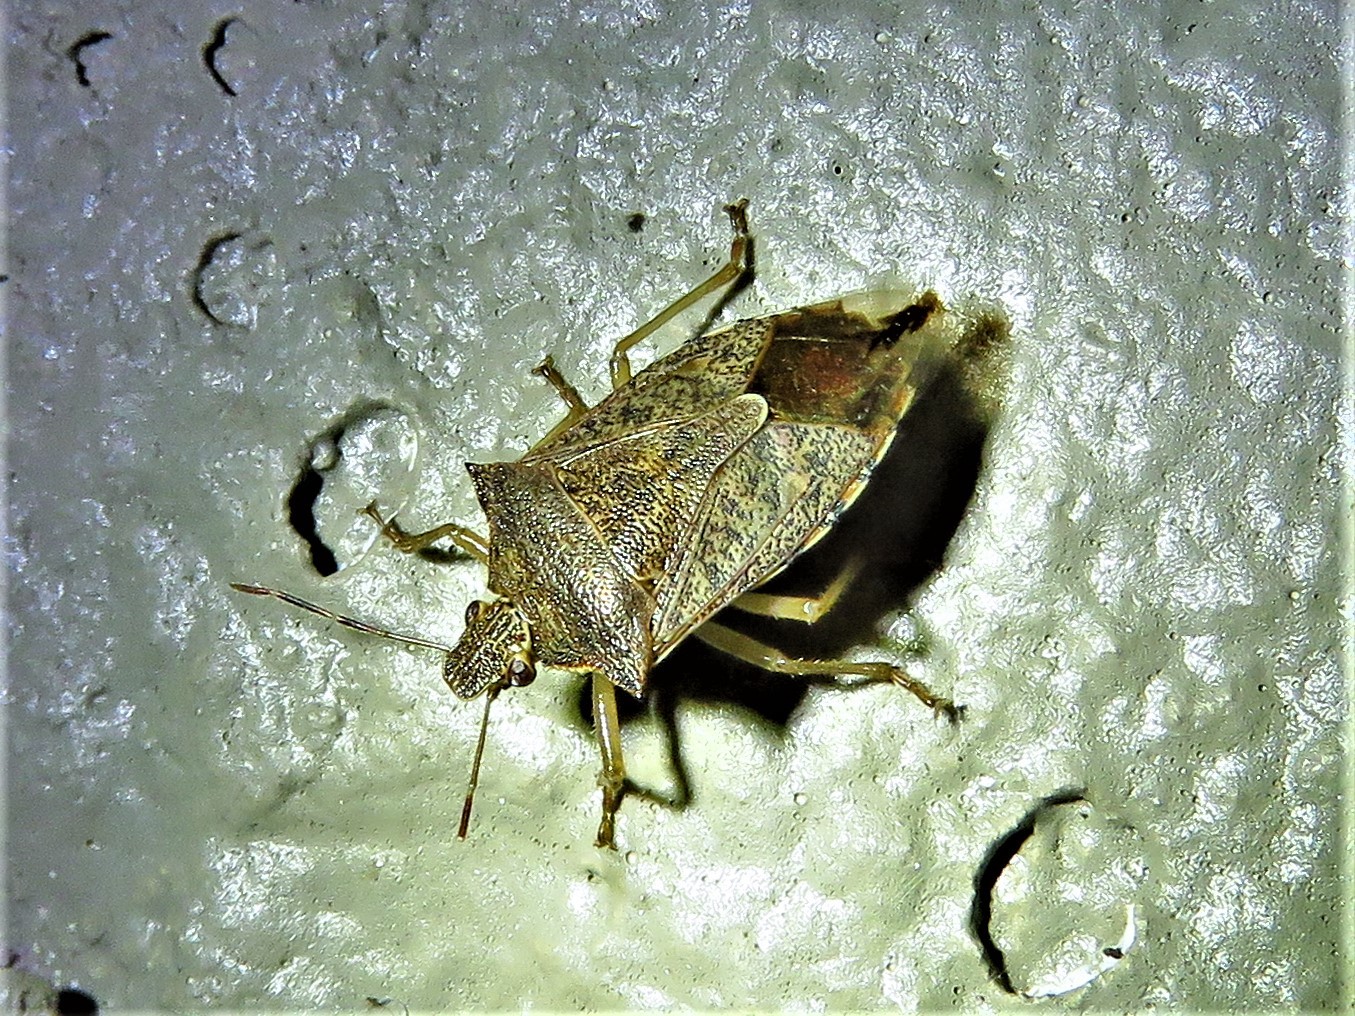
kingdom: Animalia
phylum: Arthropoda
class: Insecta
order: Hemiptera
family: Pentatomidae
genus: Podisus
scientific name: Podisus maculiventris
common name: Spined soldier bug
